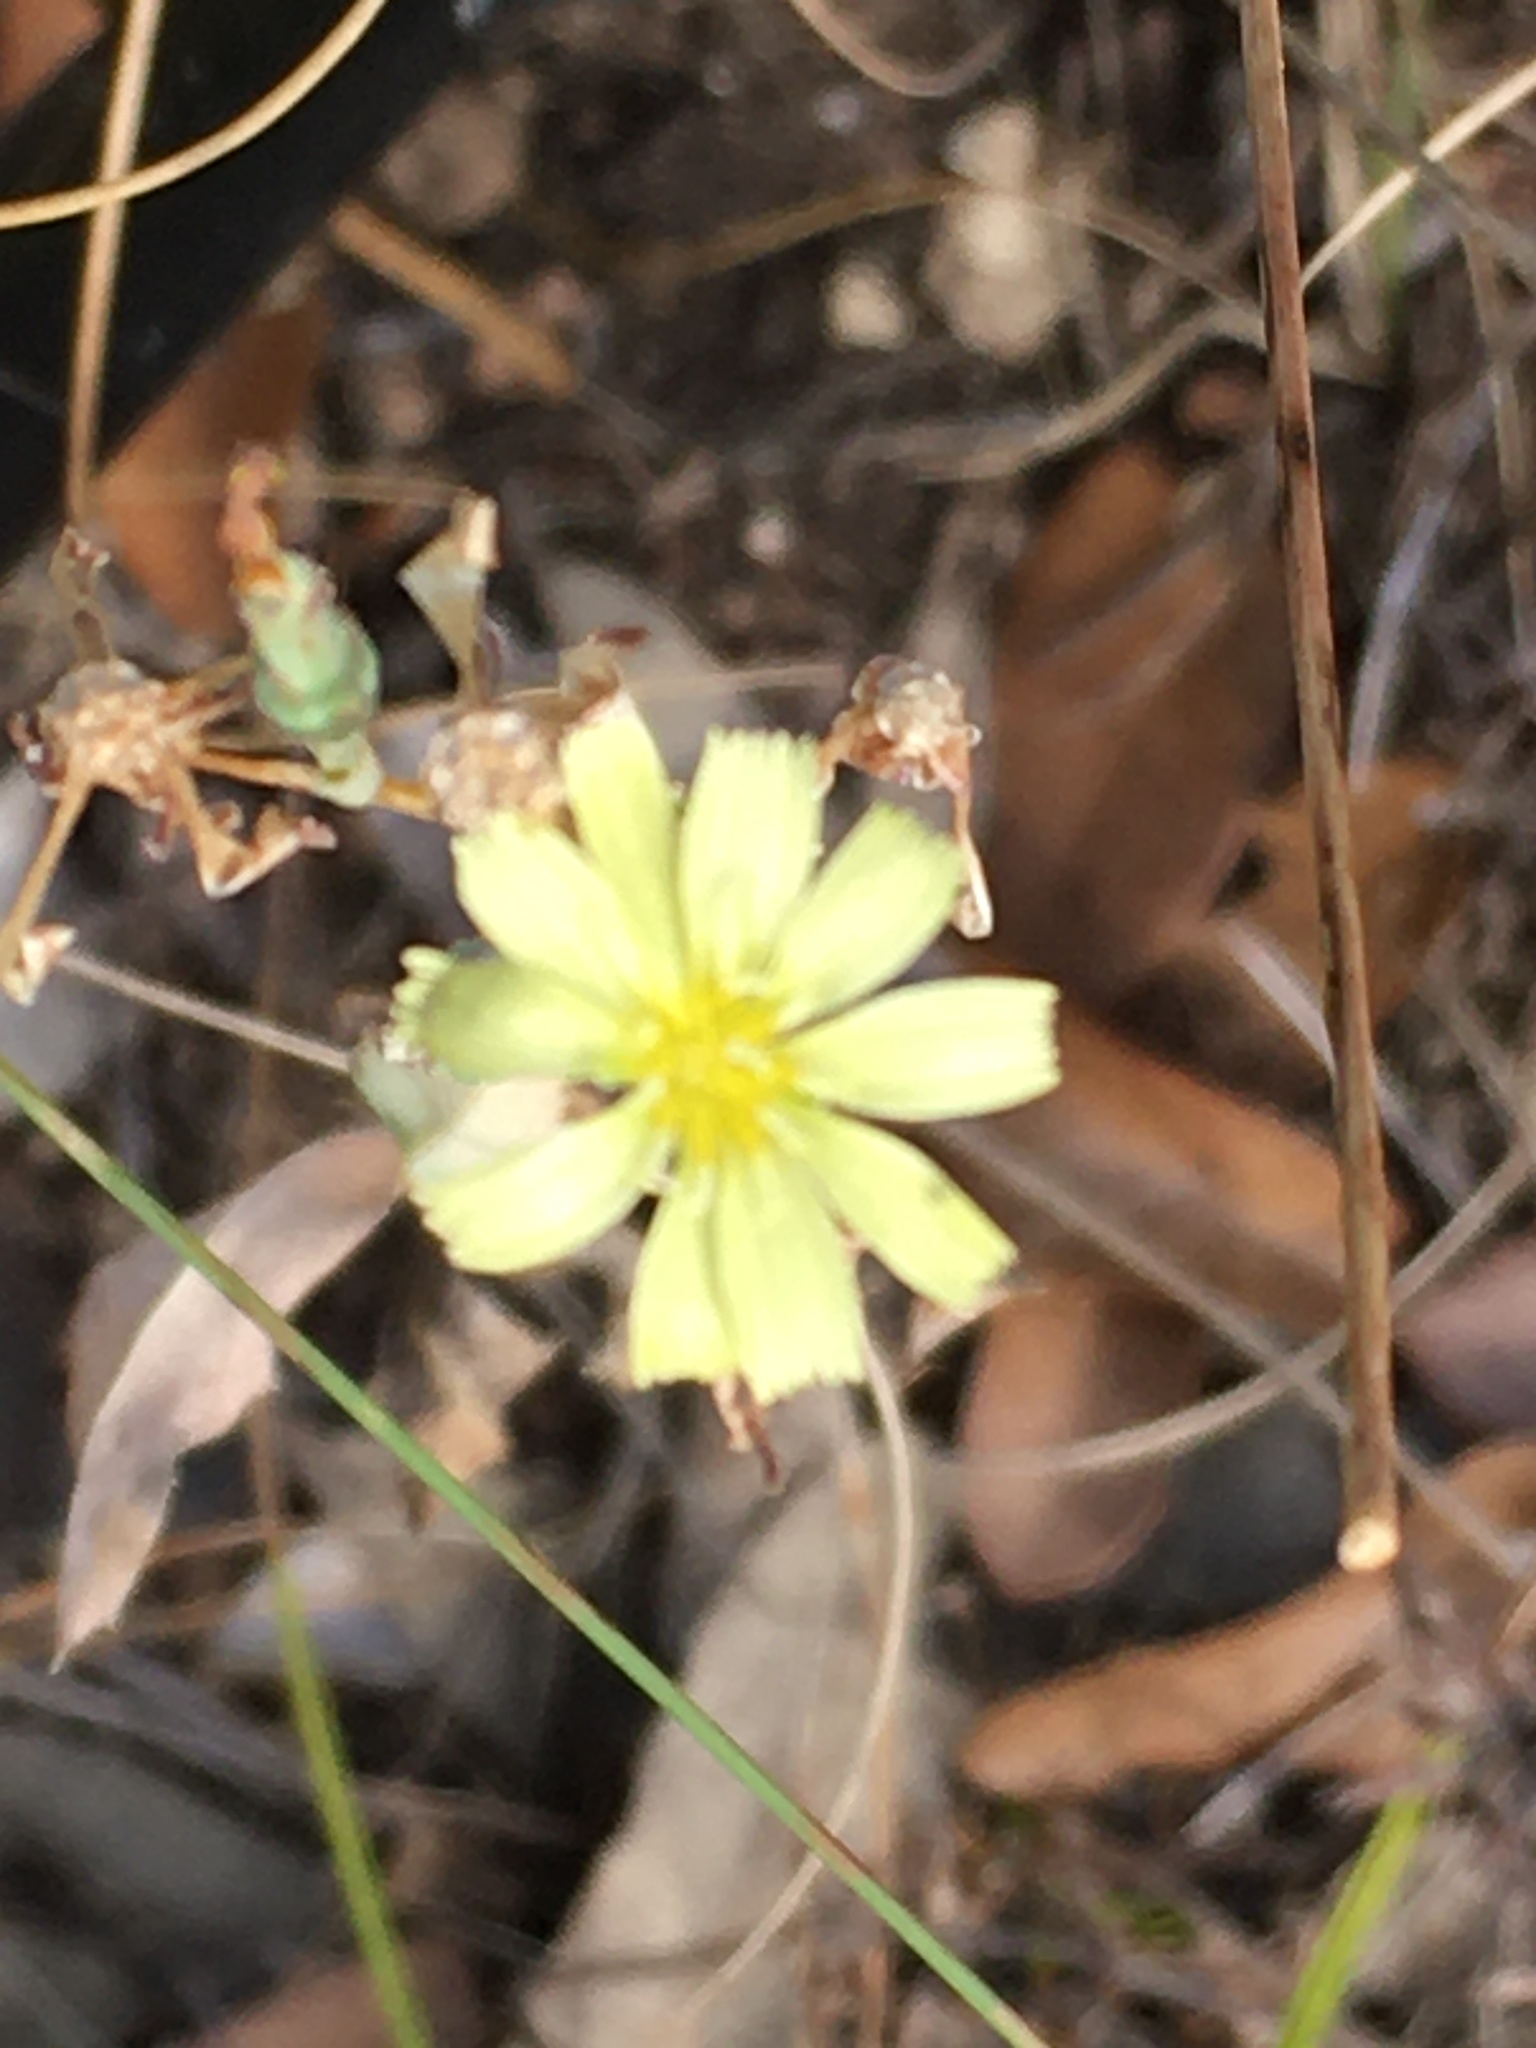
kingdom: Plantae
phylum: Tracheophyta
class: Magnoliopsida
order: Asterales
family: Asteraceae
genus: Lactuca
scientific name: Lactuca serriola
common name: Prickly lettuce
